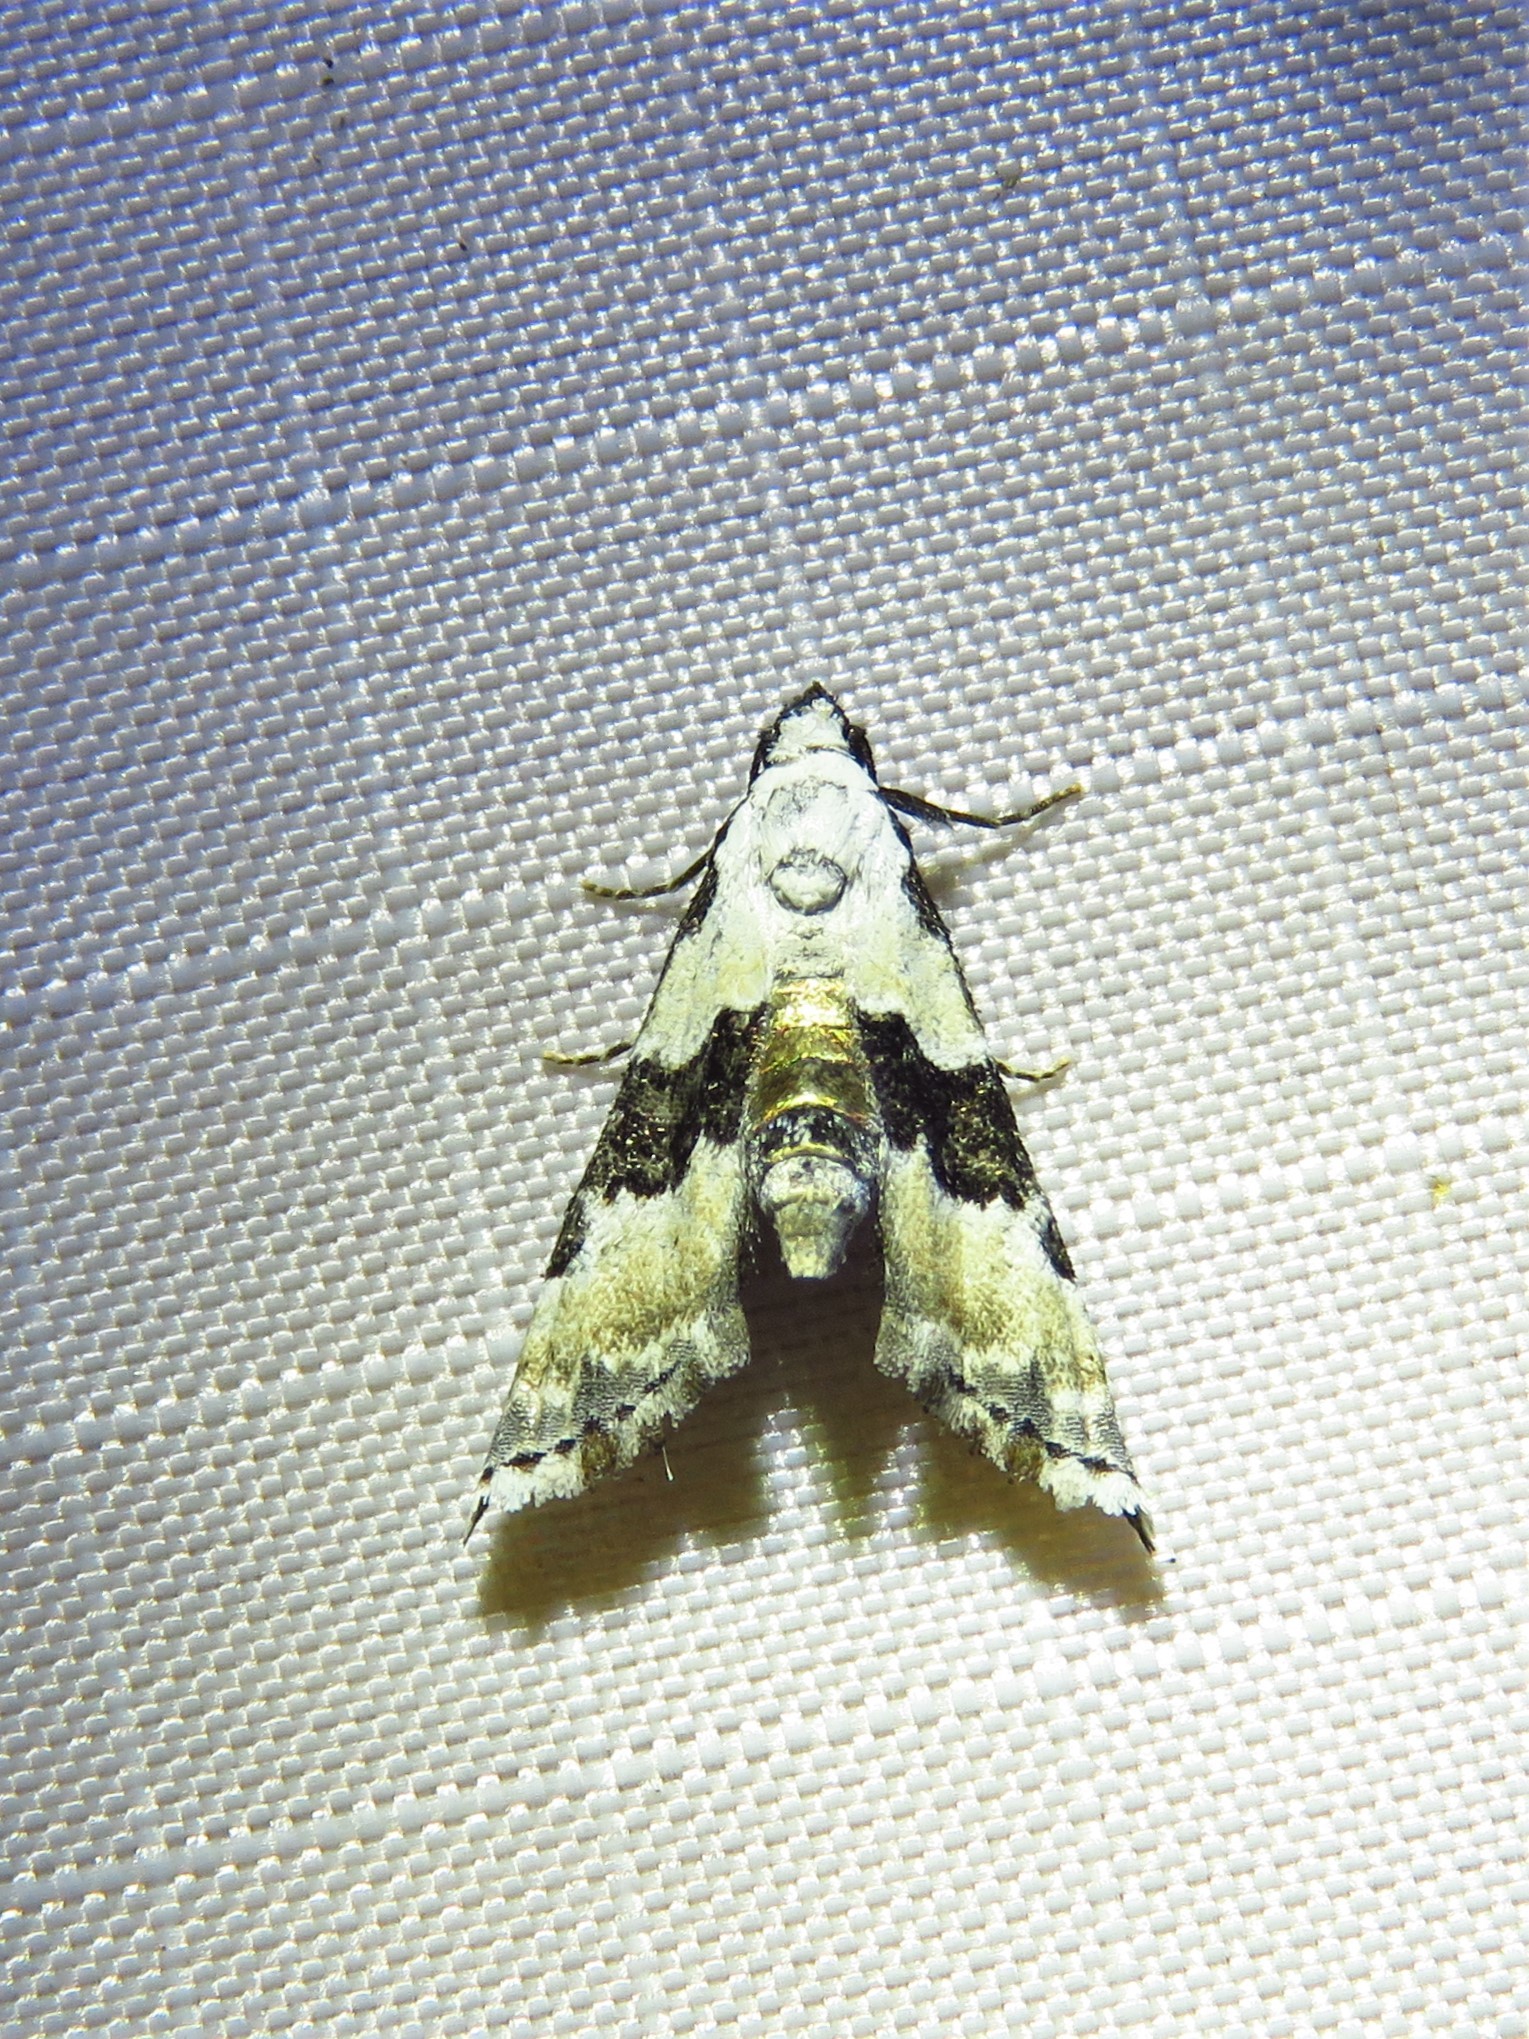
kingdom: Animalia
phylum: Arthropoda
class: Insecta
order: Lepidoptera
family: Noctuidae
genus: Nigetia
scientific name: Nigetia formosalis
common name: Thin-winged owlet
